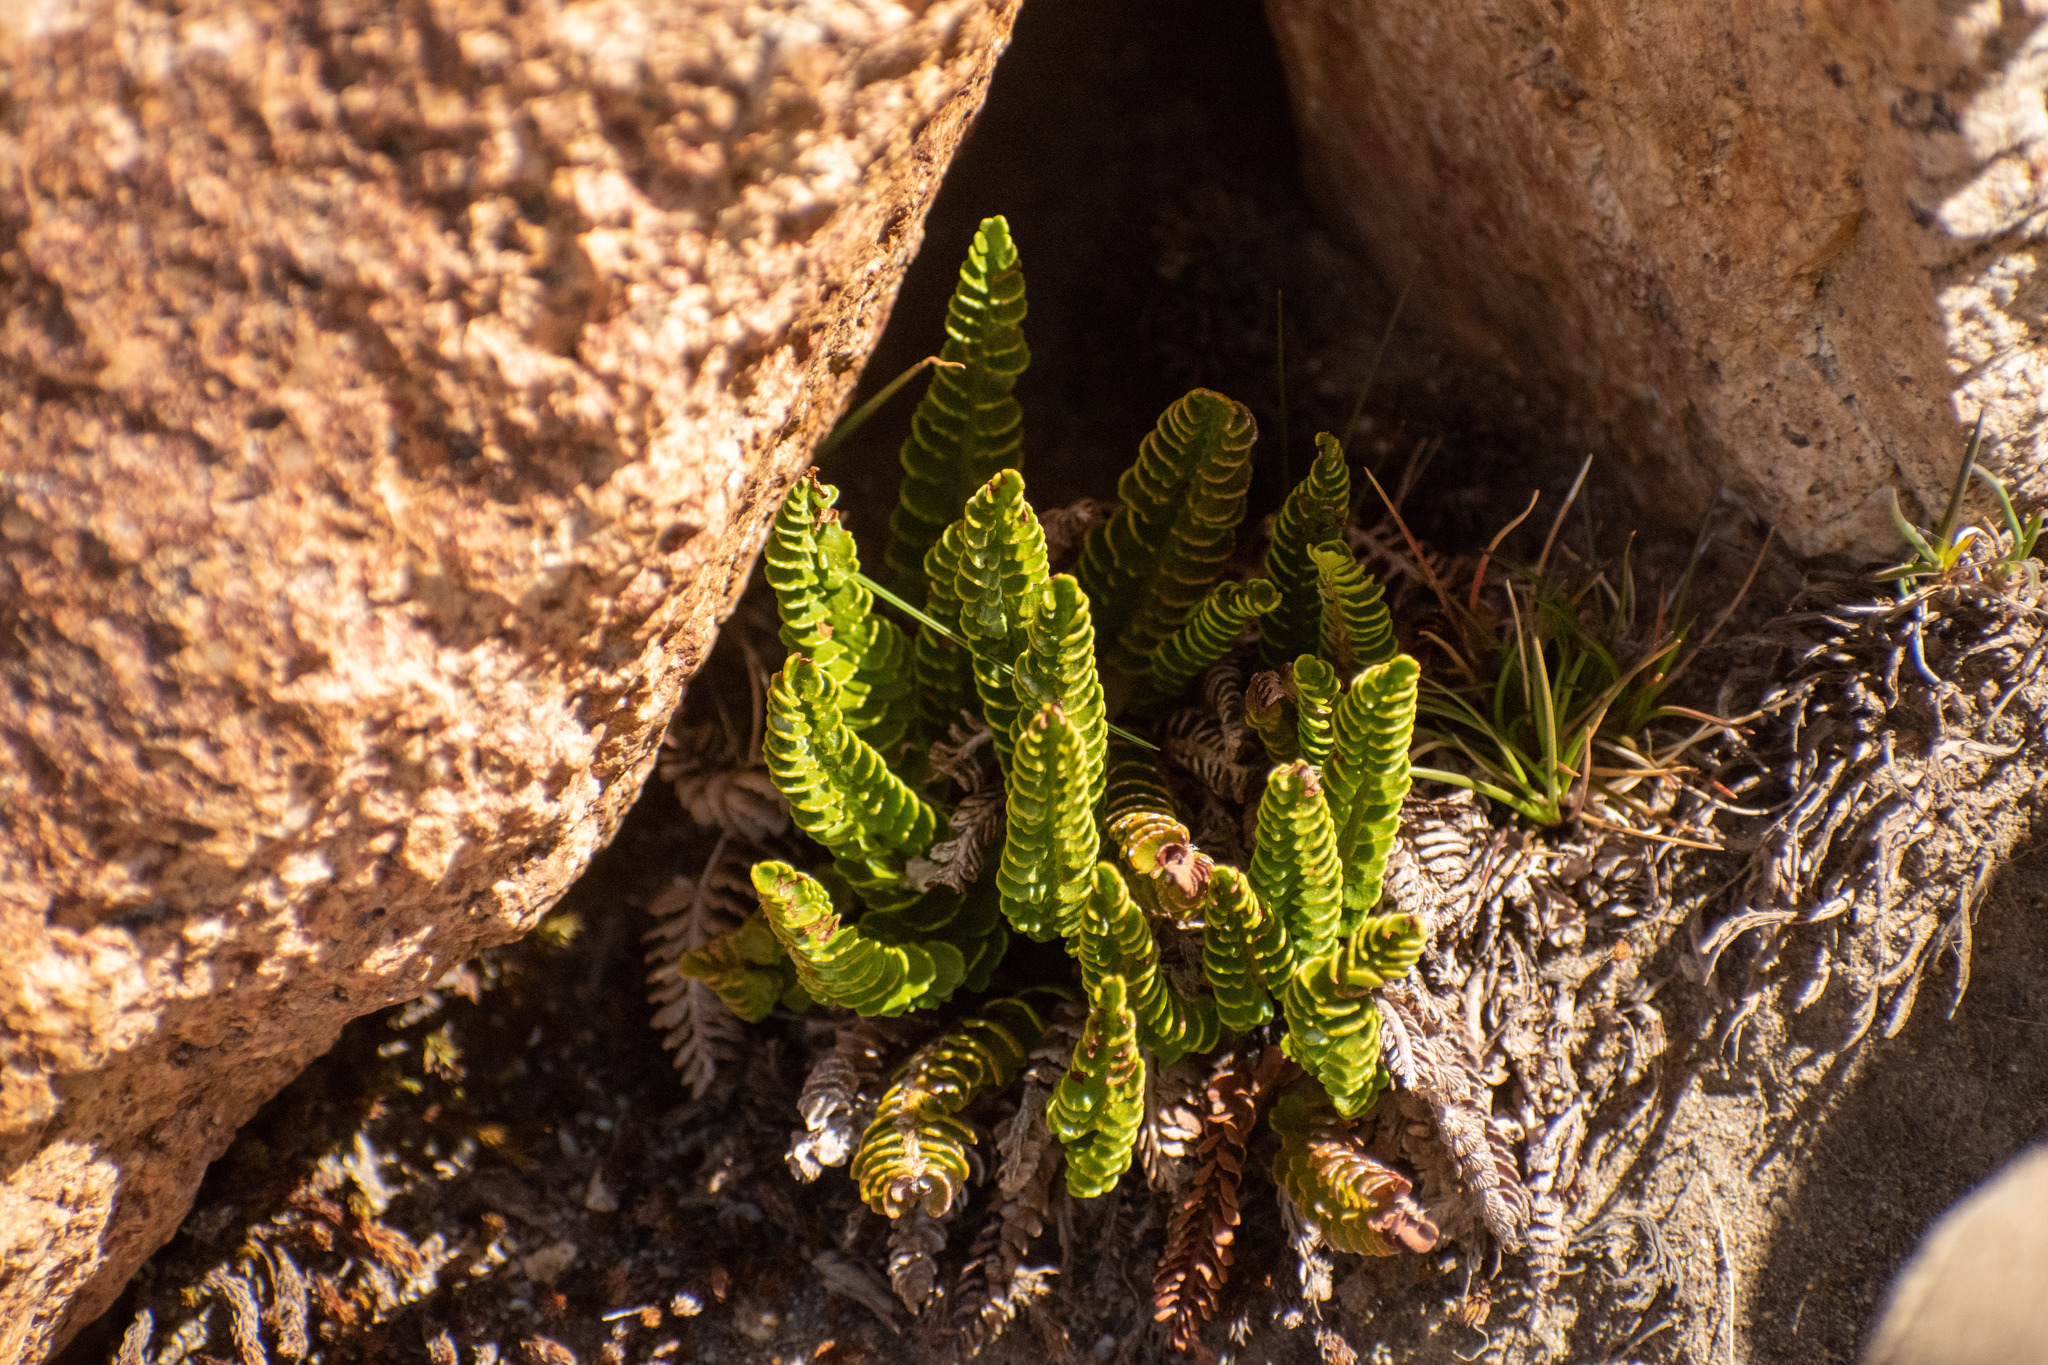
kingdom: Plantae
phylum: Tracheophyta
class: Polypodiopsida
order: Polypodiales
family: Dryopteridaceae
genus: Polystichum
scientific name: Polystichum andinum
